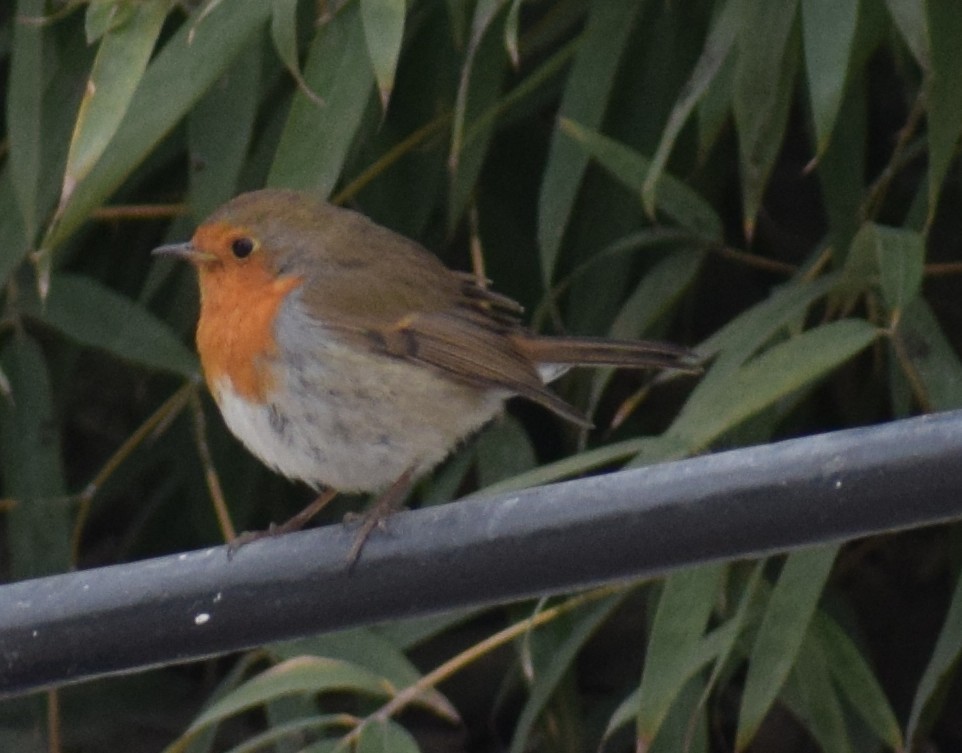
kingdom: Animalia
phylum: Chordata
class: Aves
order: Passeriformes
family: Muscicapidae
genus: Erithacus
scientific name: Erithacus rubecula
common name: European robin
